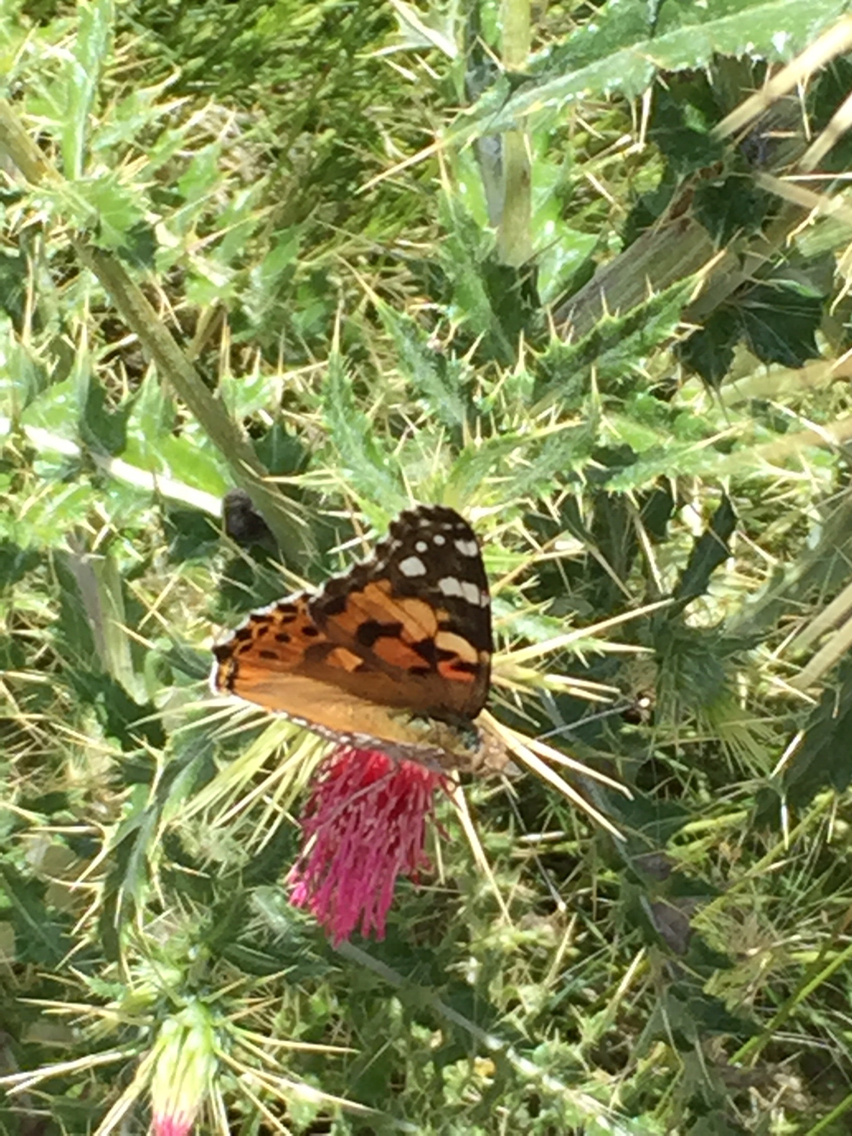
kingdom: Animalia
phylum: Arthropoda
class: Insecta
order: Lepidoptera
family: Nymphalidae
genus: Vanessa
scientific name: Vanessa cardui
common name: Painted lady
